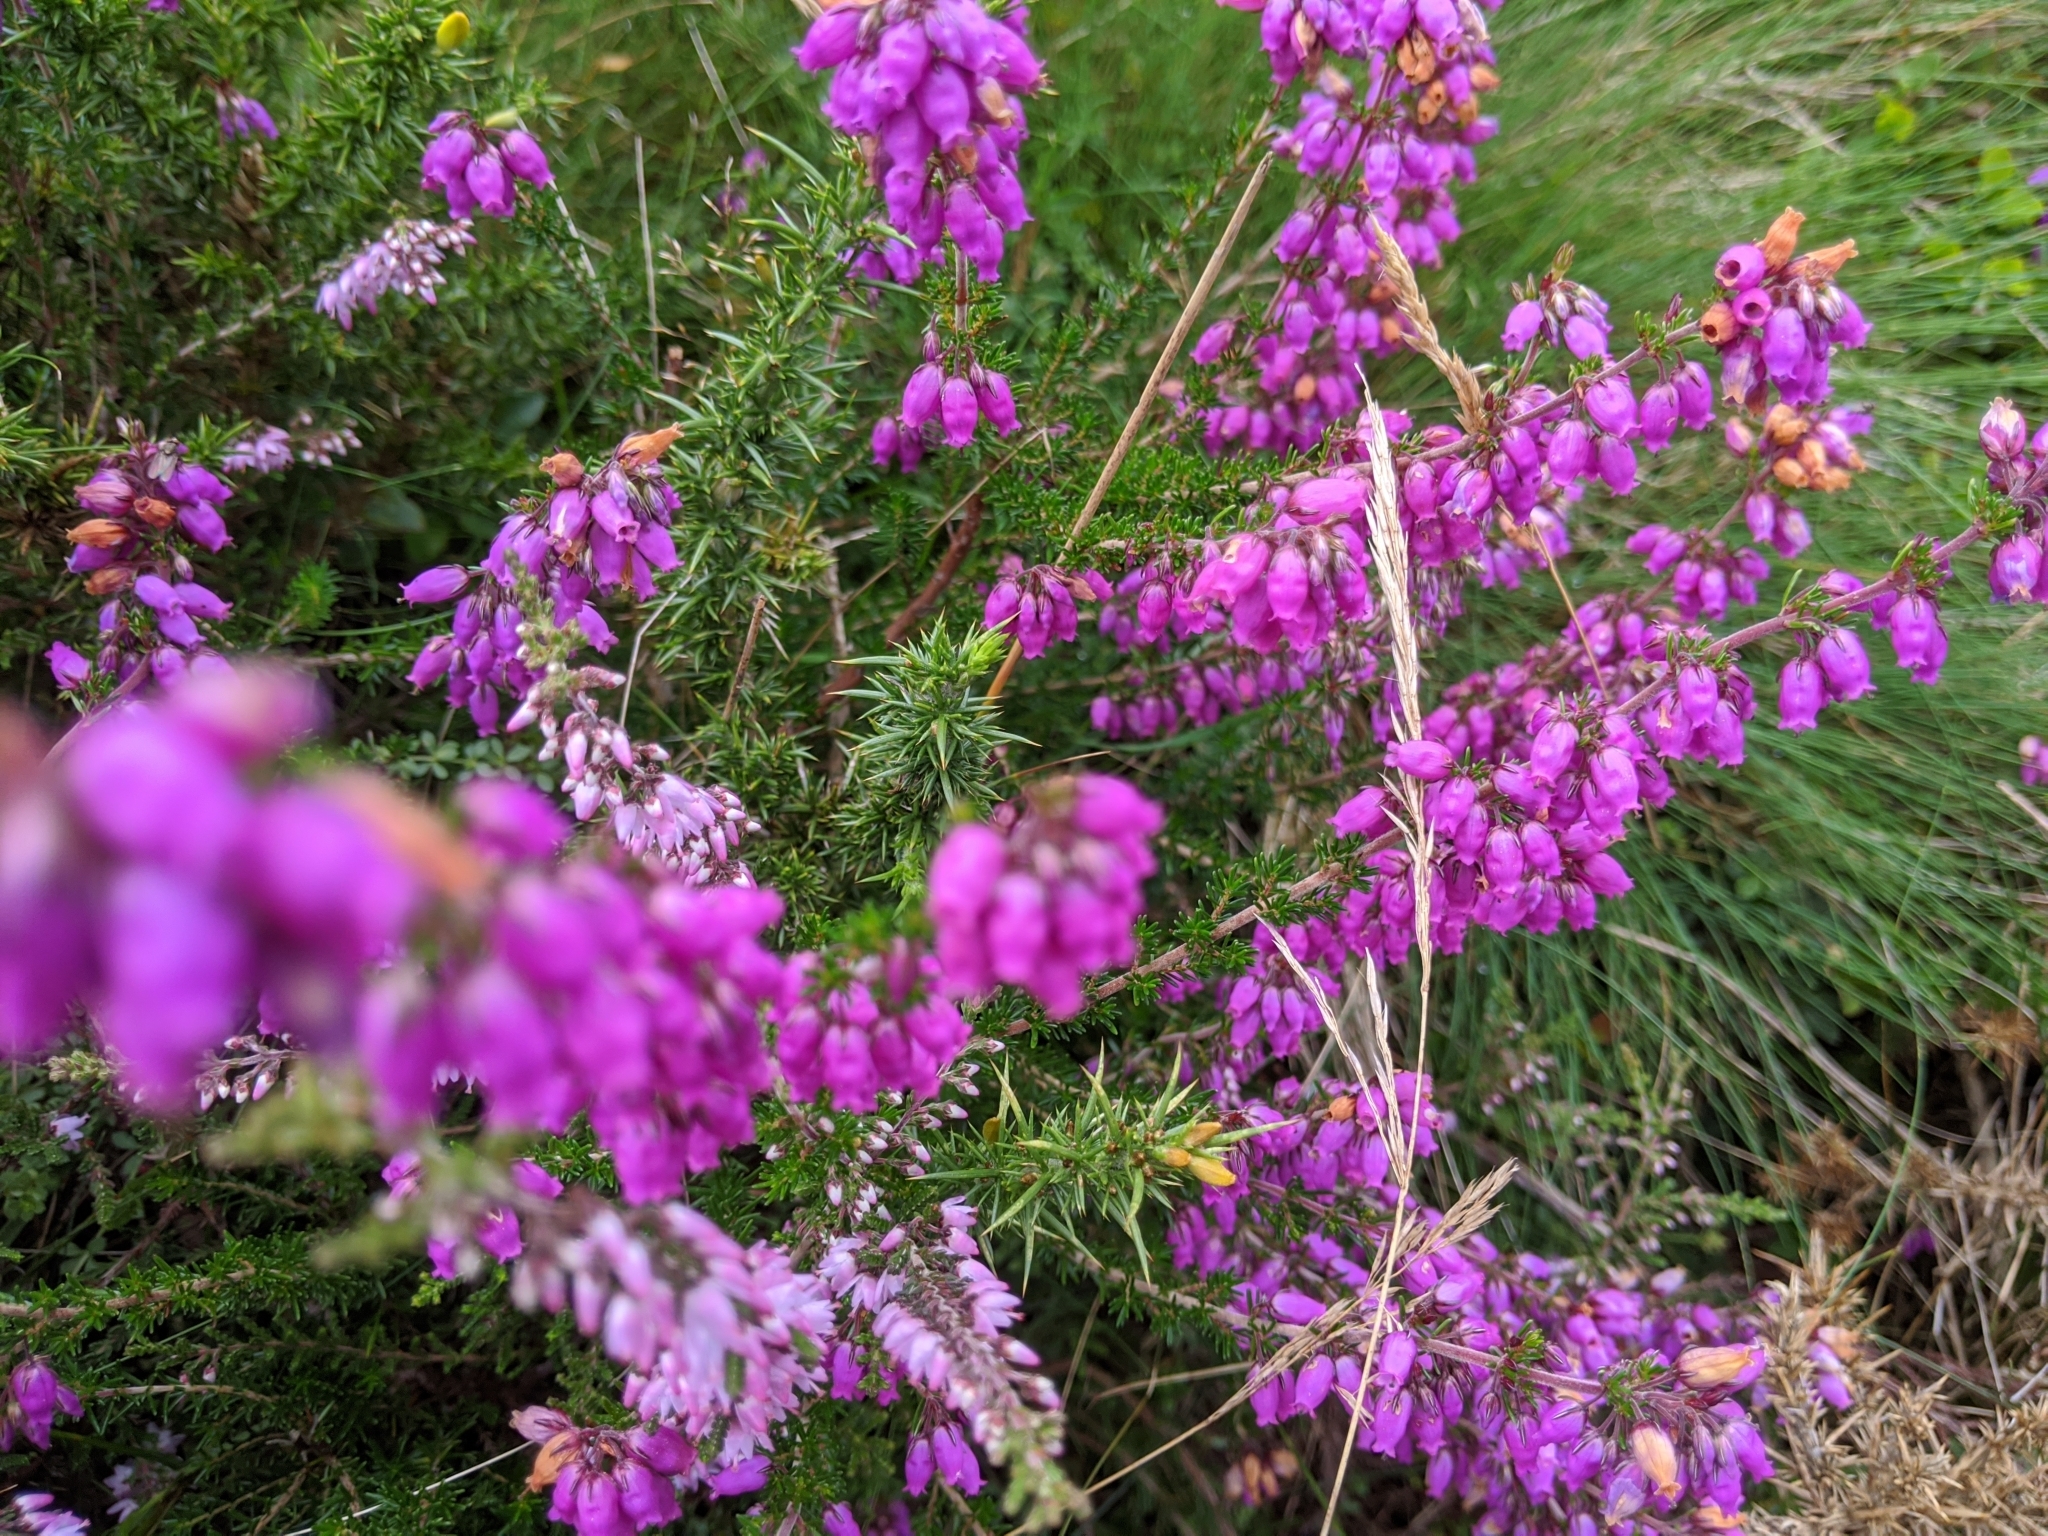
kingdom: Plantae
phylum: Tracheophyta
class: Magnoliopsida
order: Ericales
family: Ericaceae
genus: Erica
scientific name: Erica cinerea
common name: Bell heather
